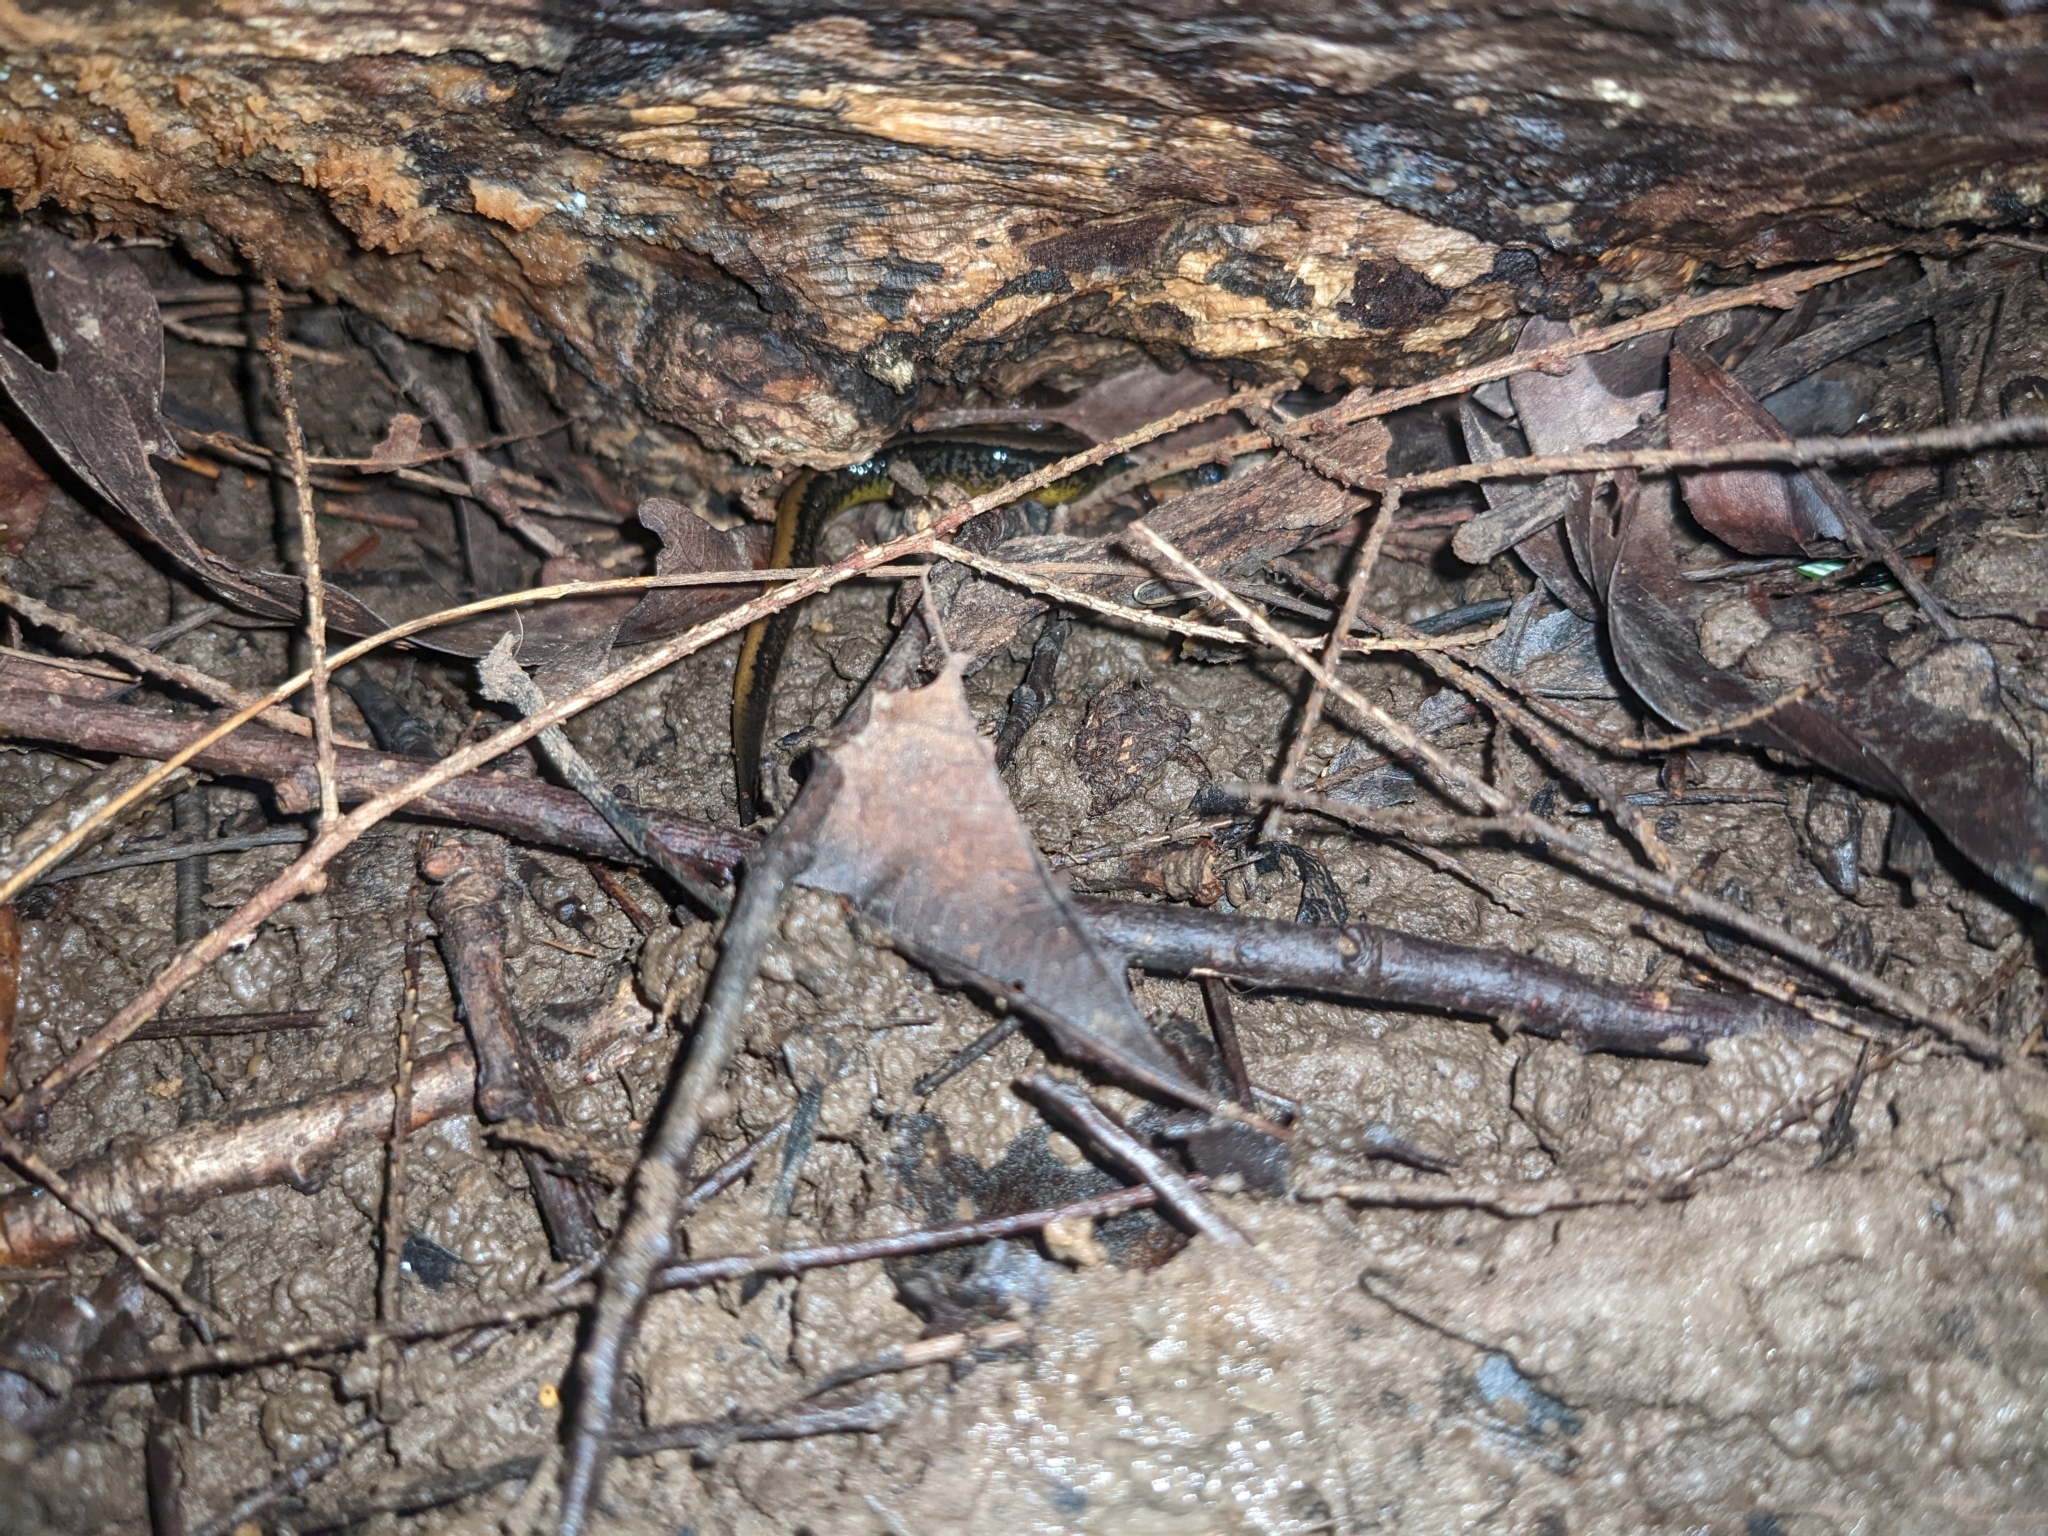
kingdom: Animalia
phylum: Chordata
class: Amphibia
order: Caudata
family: Plethodontidae
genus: Eurycea
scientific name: Eurycea bislineata
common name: Northern two-lined salamander
